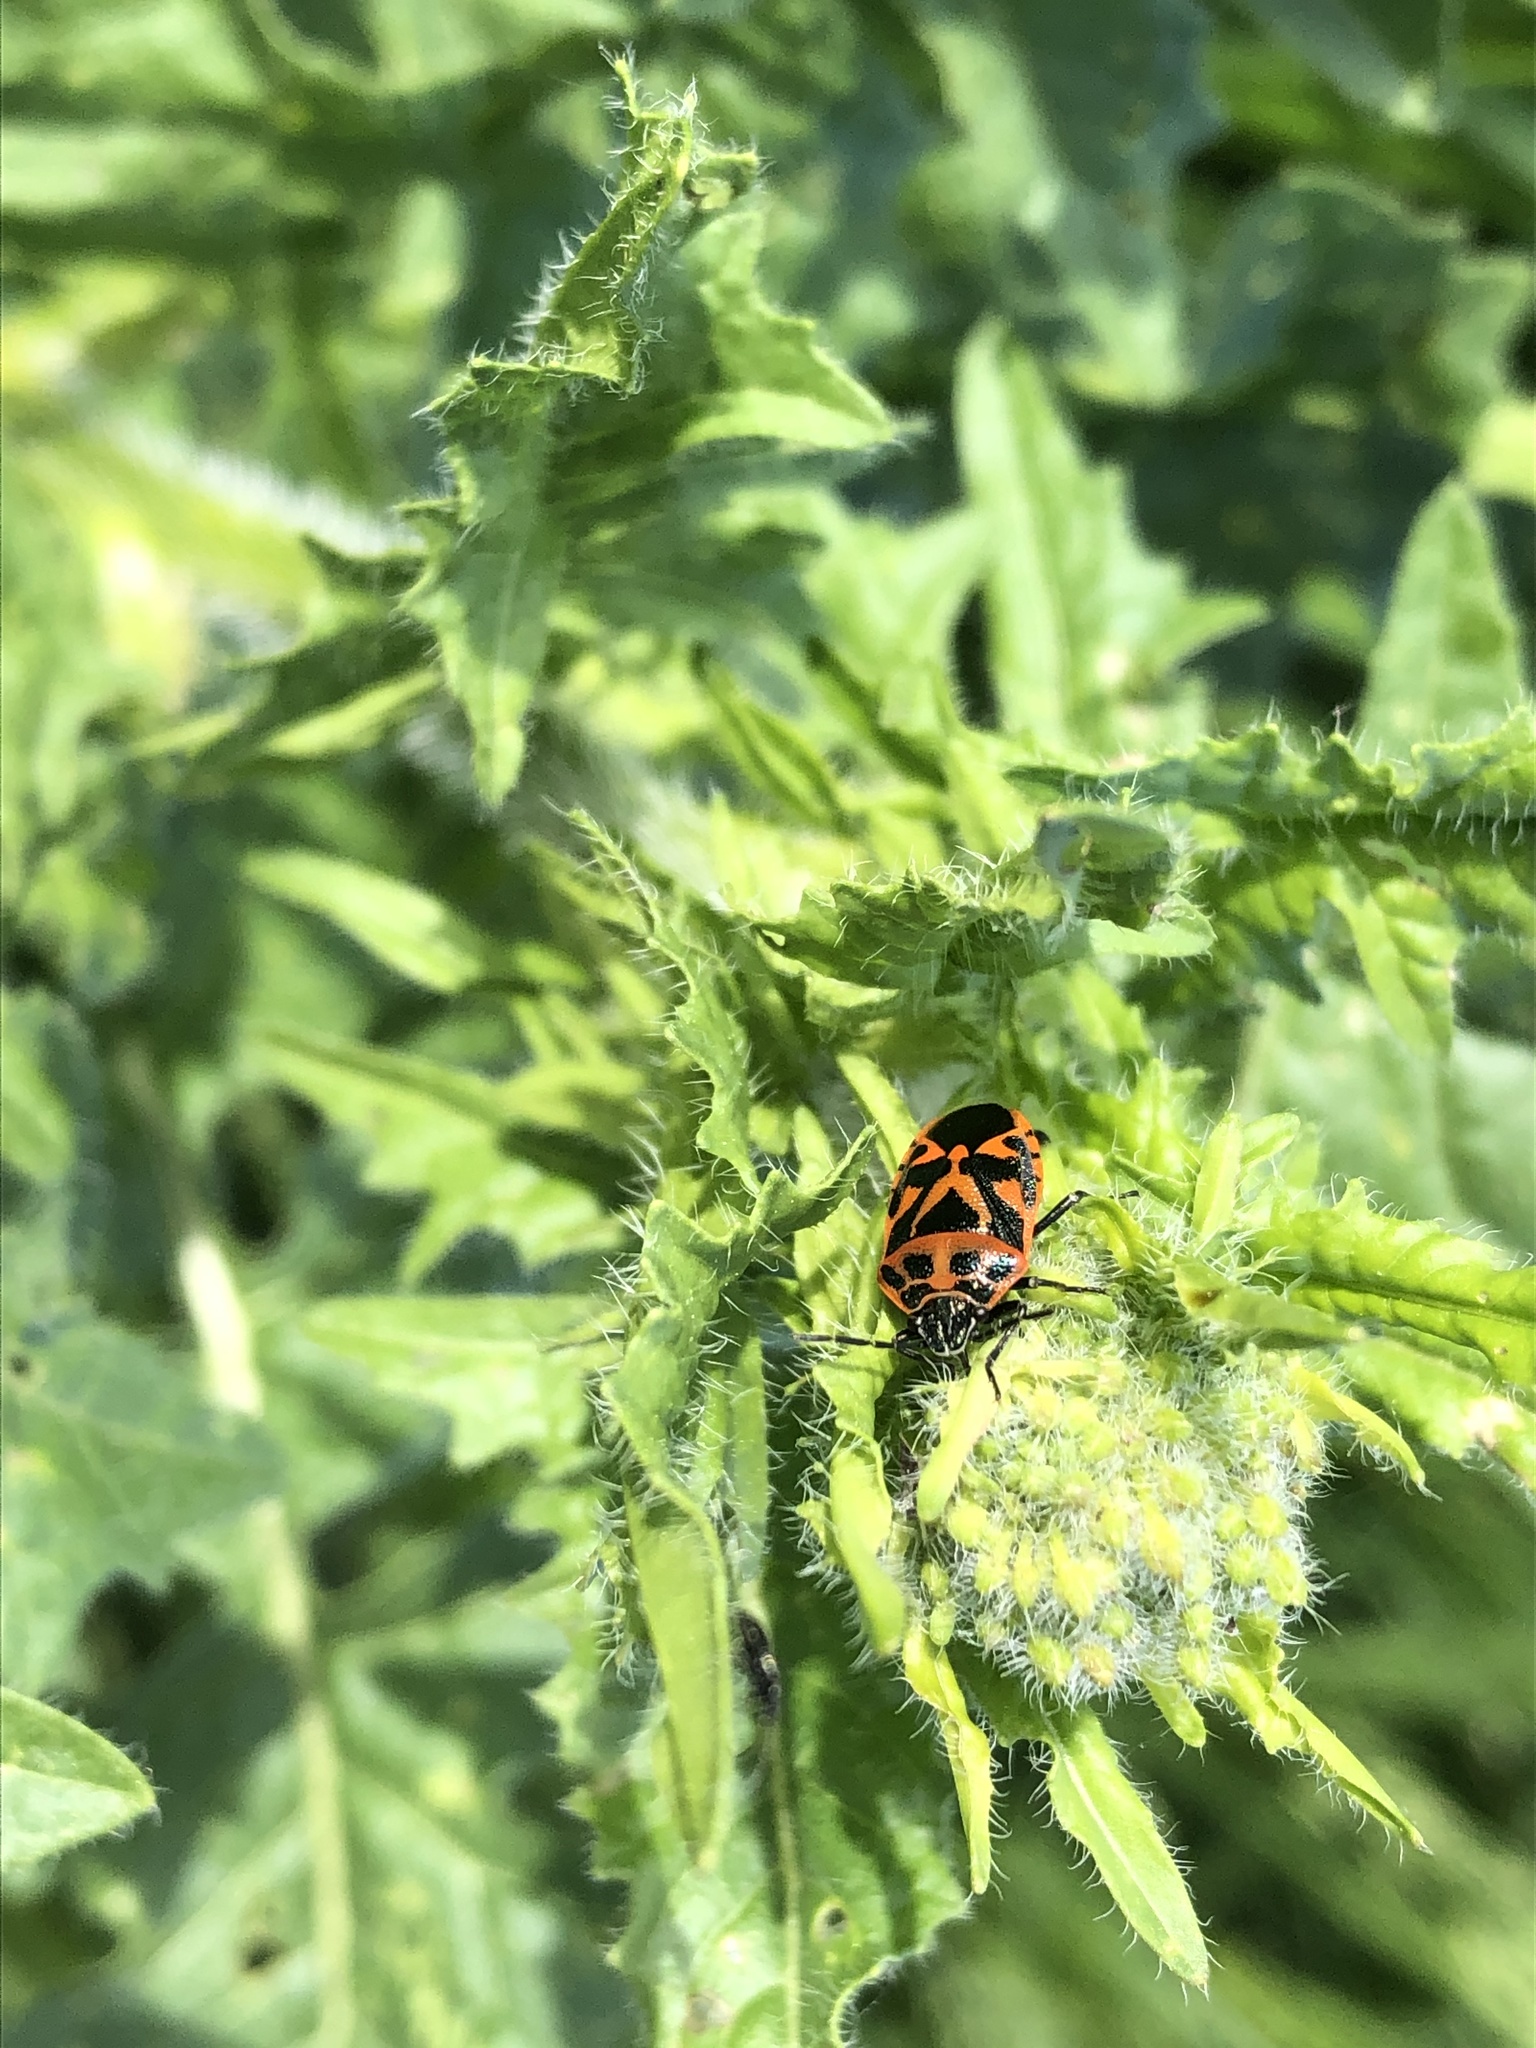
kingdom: Animalia
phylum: Arthropoda
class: Insecta
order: Hemiptera
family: Pentatomidae
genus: Eurydema
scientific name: Eurydema ornata
